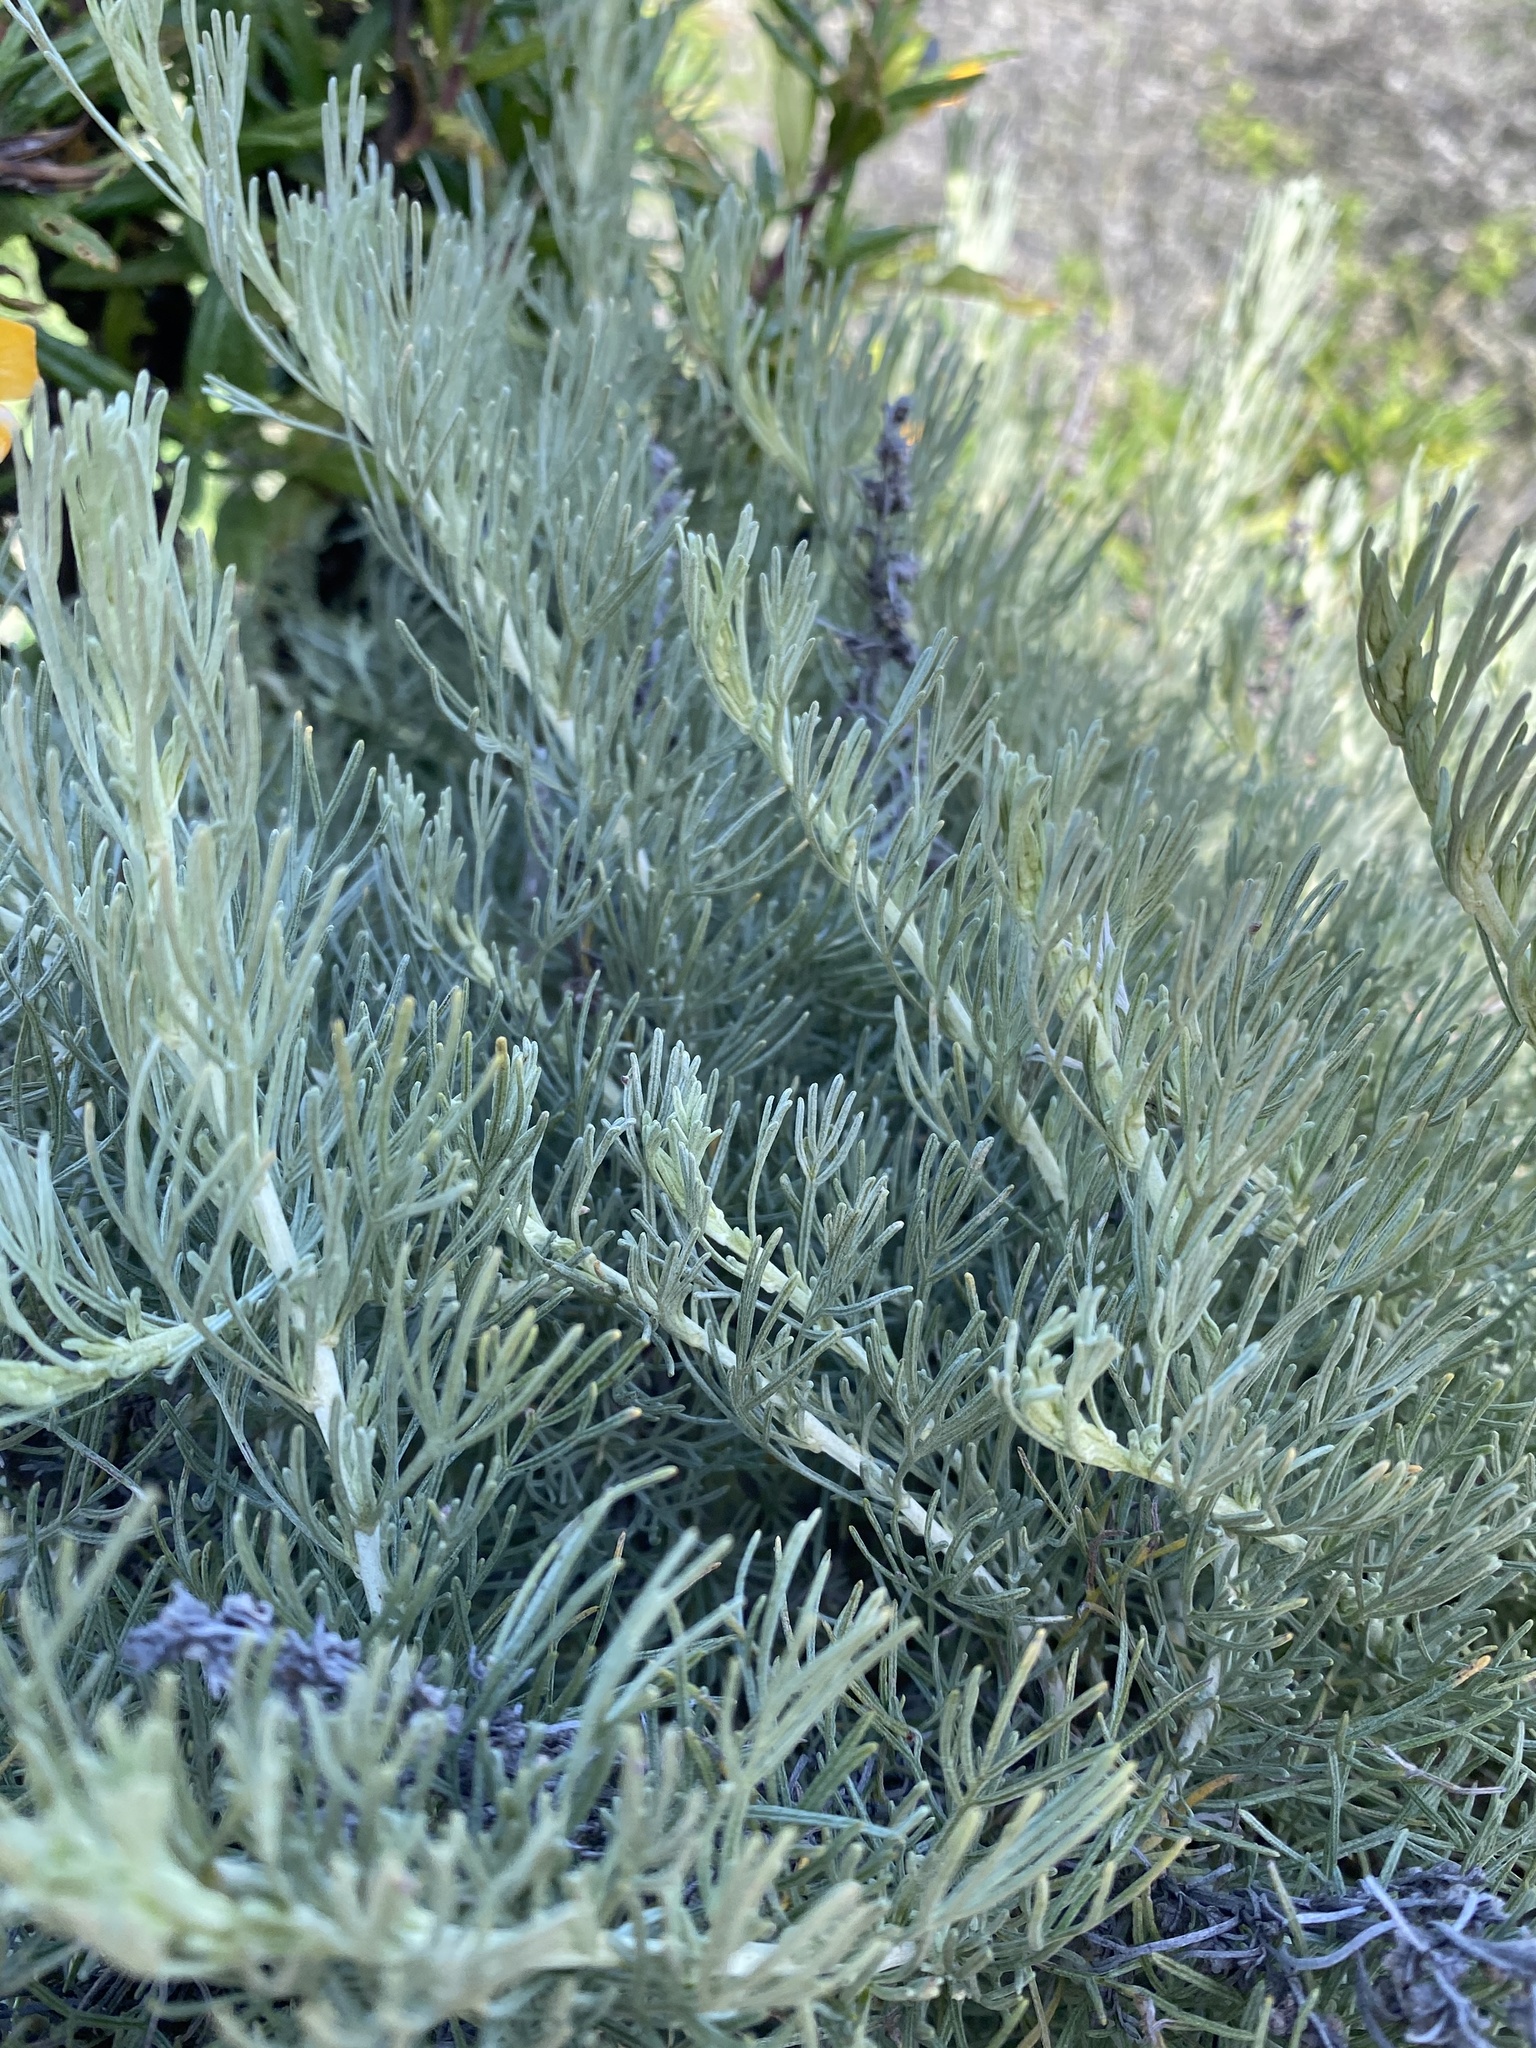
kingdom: Plantae
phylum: Tracheophyta
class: Magnoliopsida
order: Asterales
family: Asteraceae
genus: Artemisia
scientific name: Artemisia californica
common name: California sagebrush
